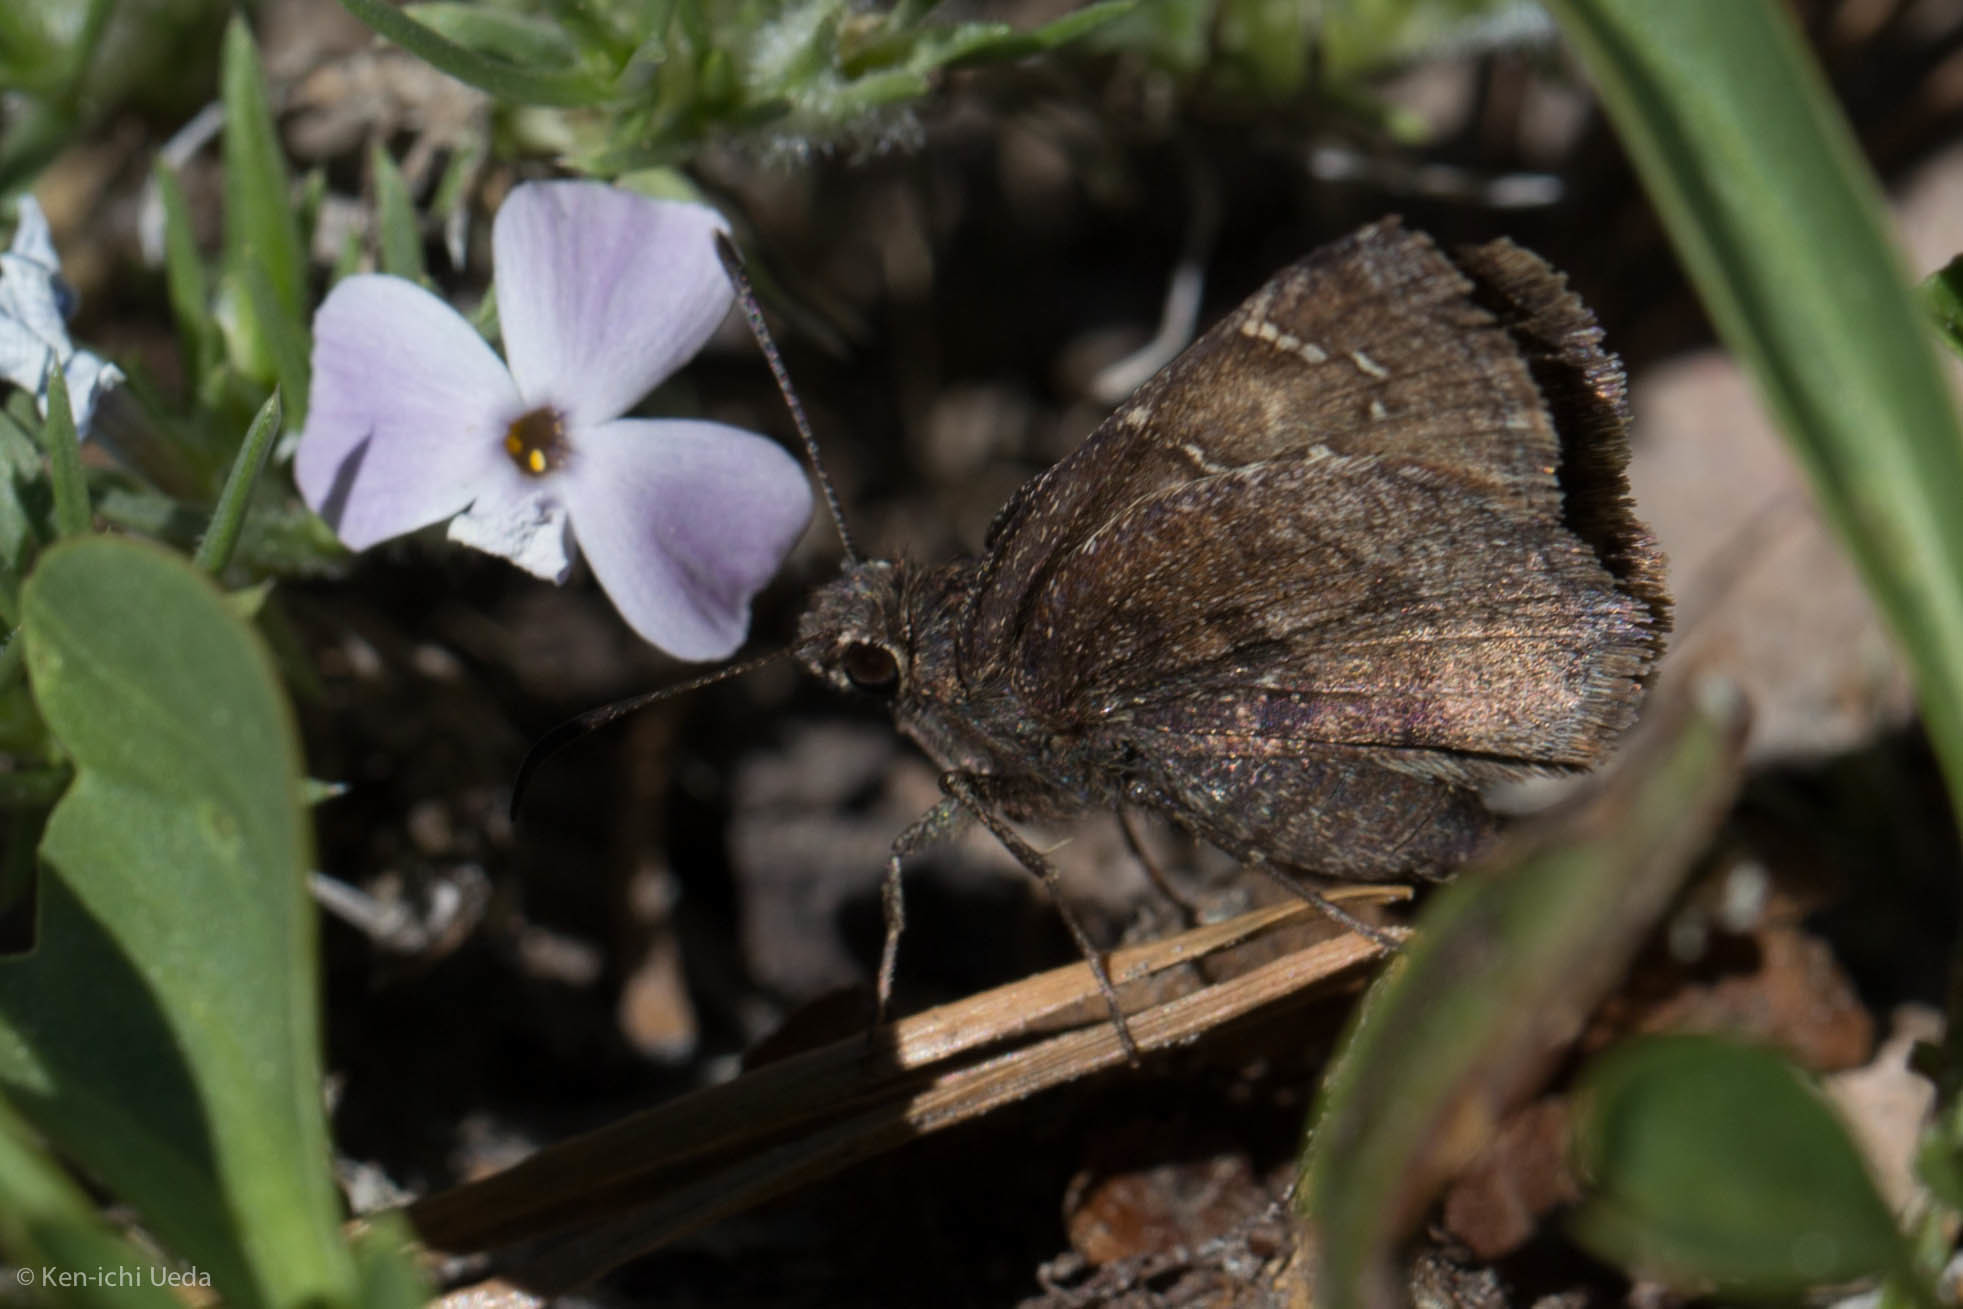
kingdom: Animalia
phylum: Arthropoda
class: Insecta
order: Lepidoptera
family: Hesperiidae
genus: Thorybes
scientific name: Thorybes mexicana
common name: Mexican cloudywing
